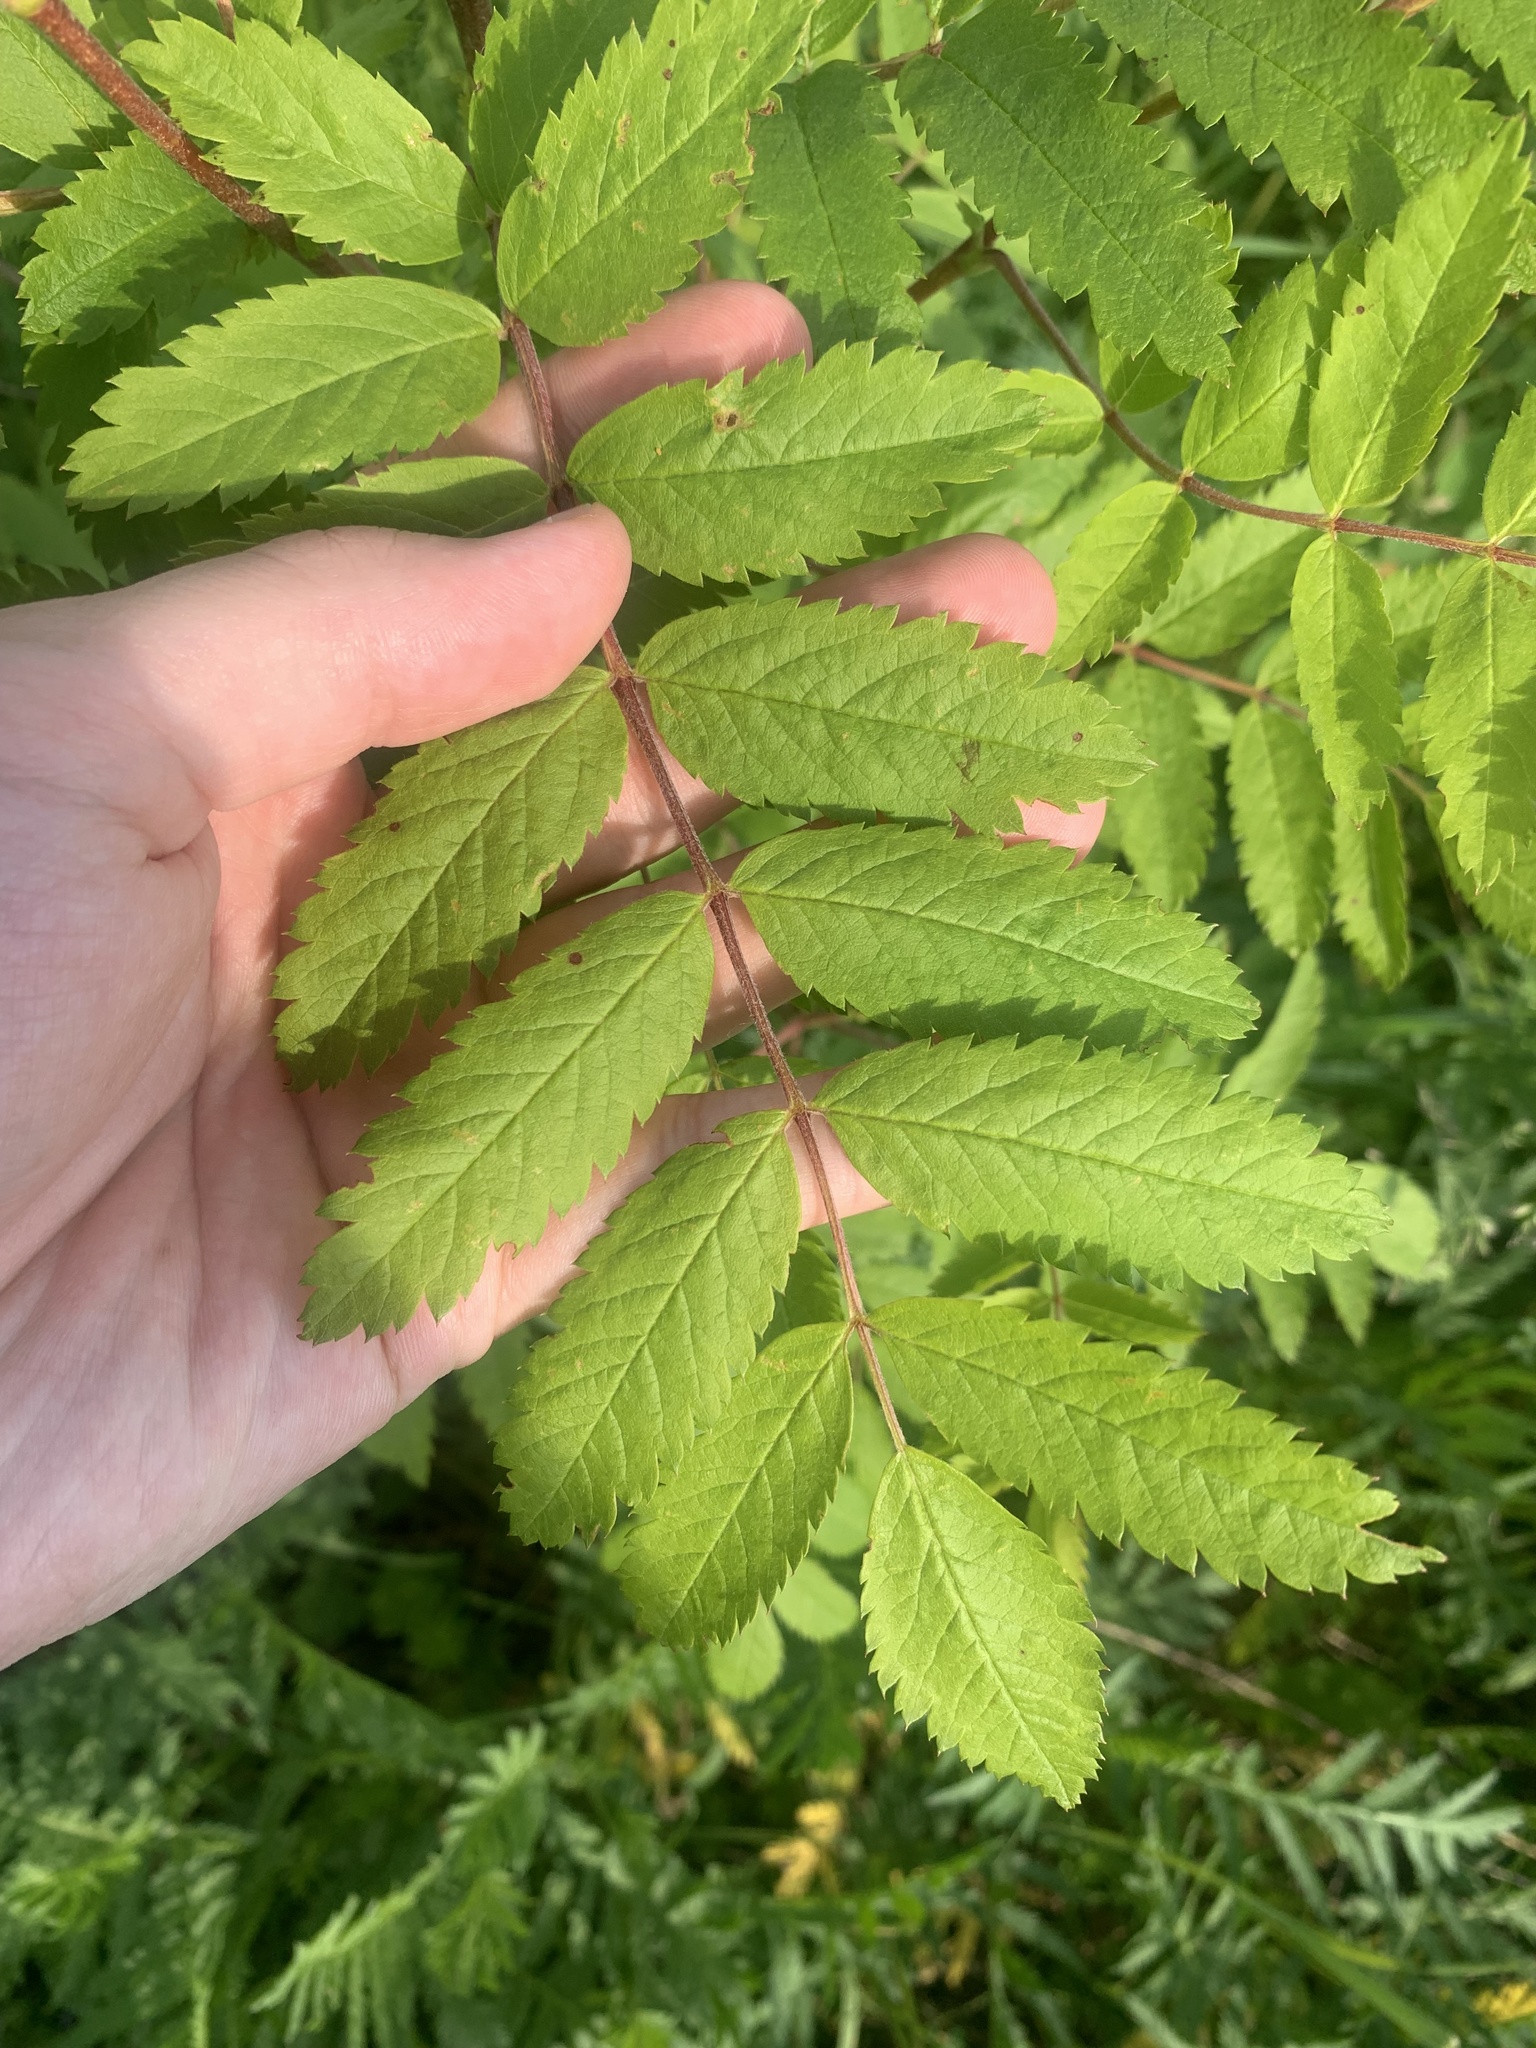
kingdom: Plantae
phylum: Tracheophyta
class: Magnoliopsida
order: Rosales
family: Rosaceae
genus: Sorbus
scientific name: Sorbus aucuparia
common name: Rowan
